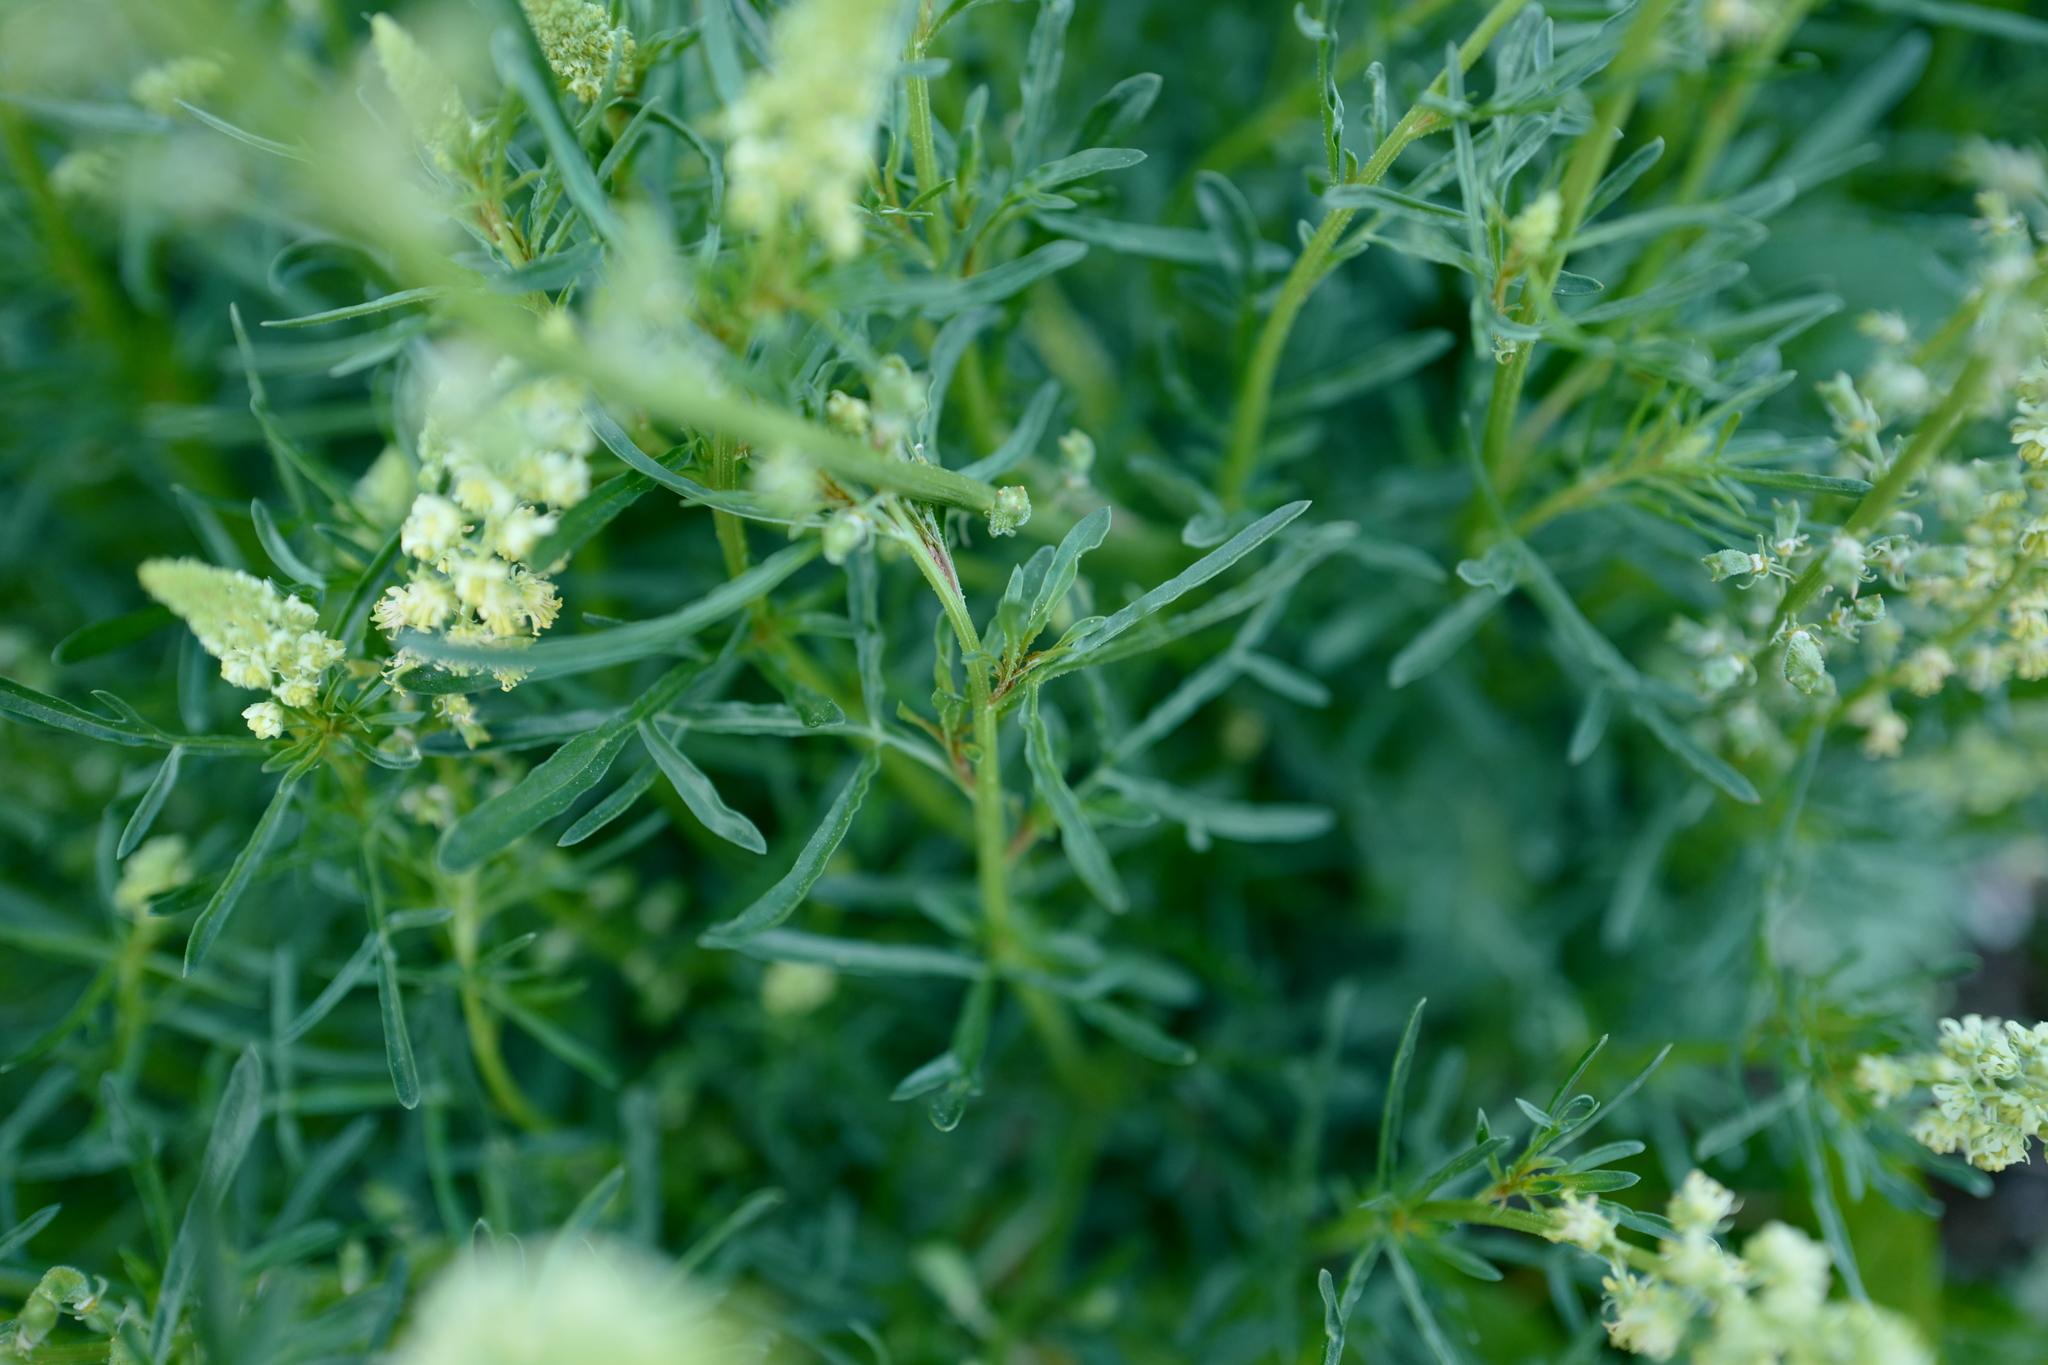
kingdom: Plantae
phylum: Tracheophyta
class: Magnoliopsida
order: Brassicales
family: Resedaceae
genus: Reseda
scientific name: Reseda lutea
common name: Wild mignonette
